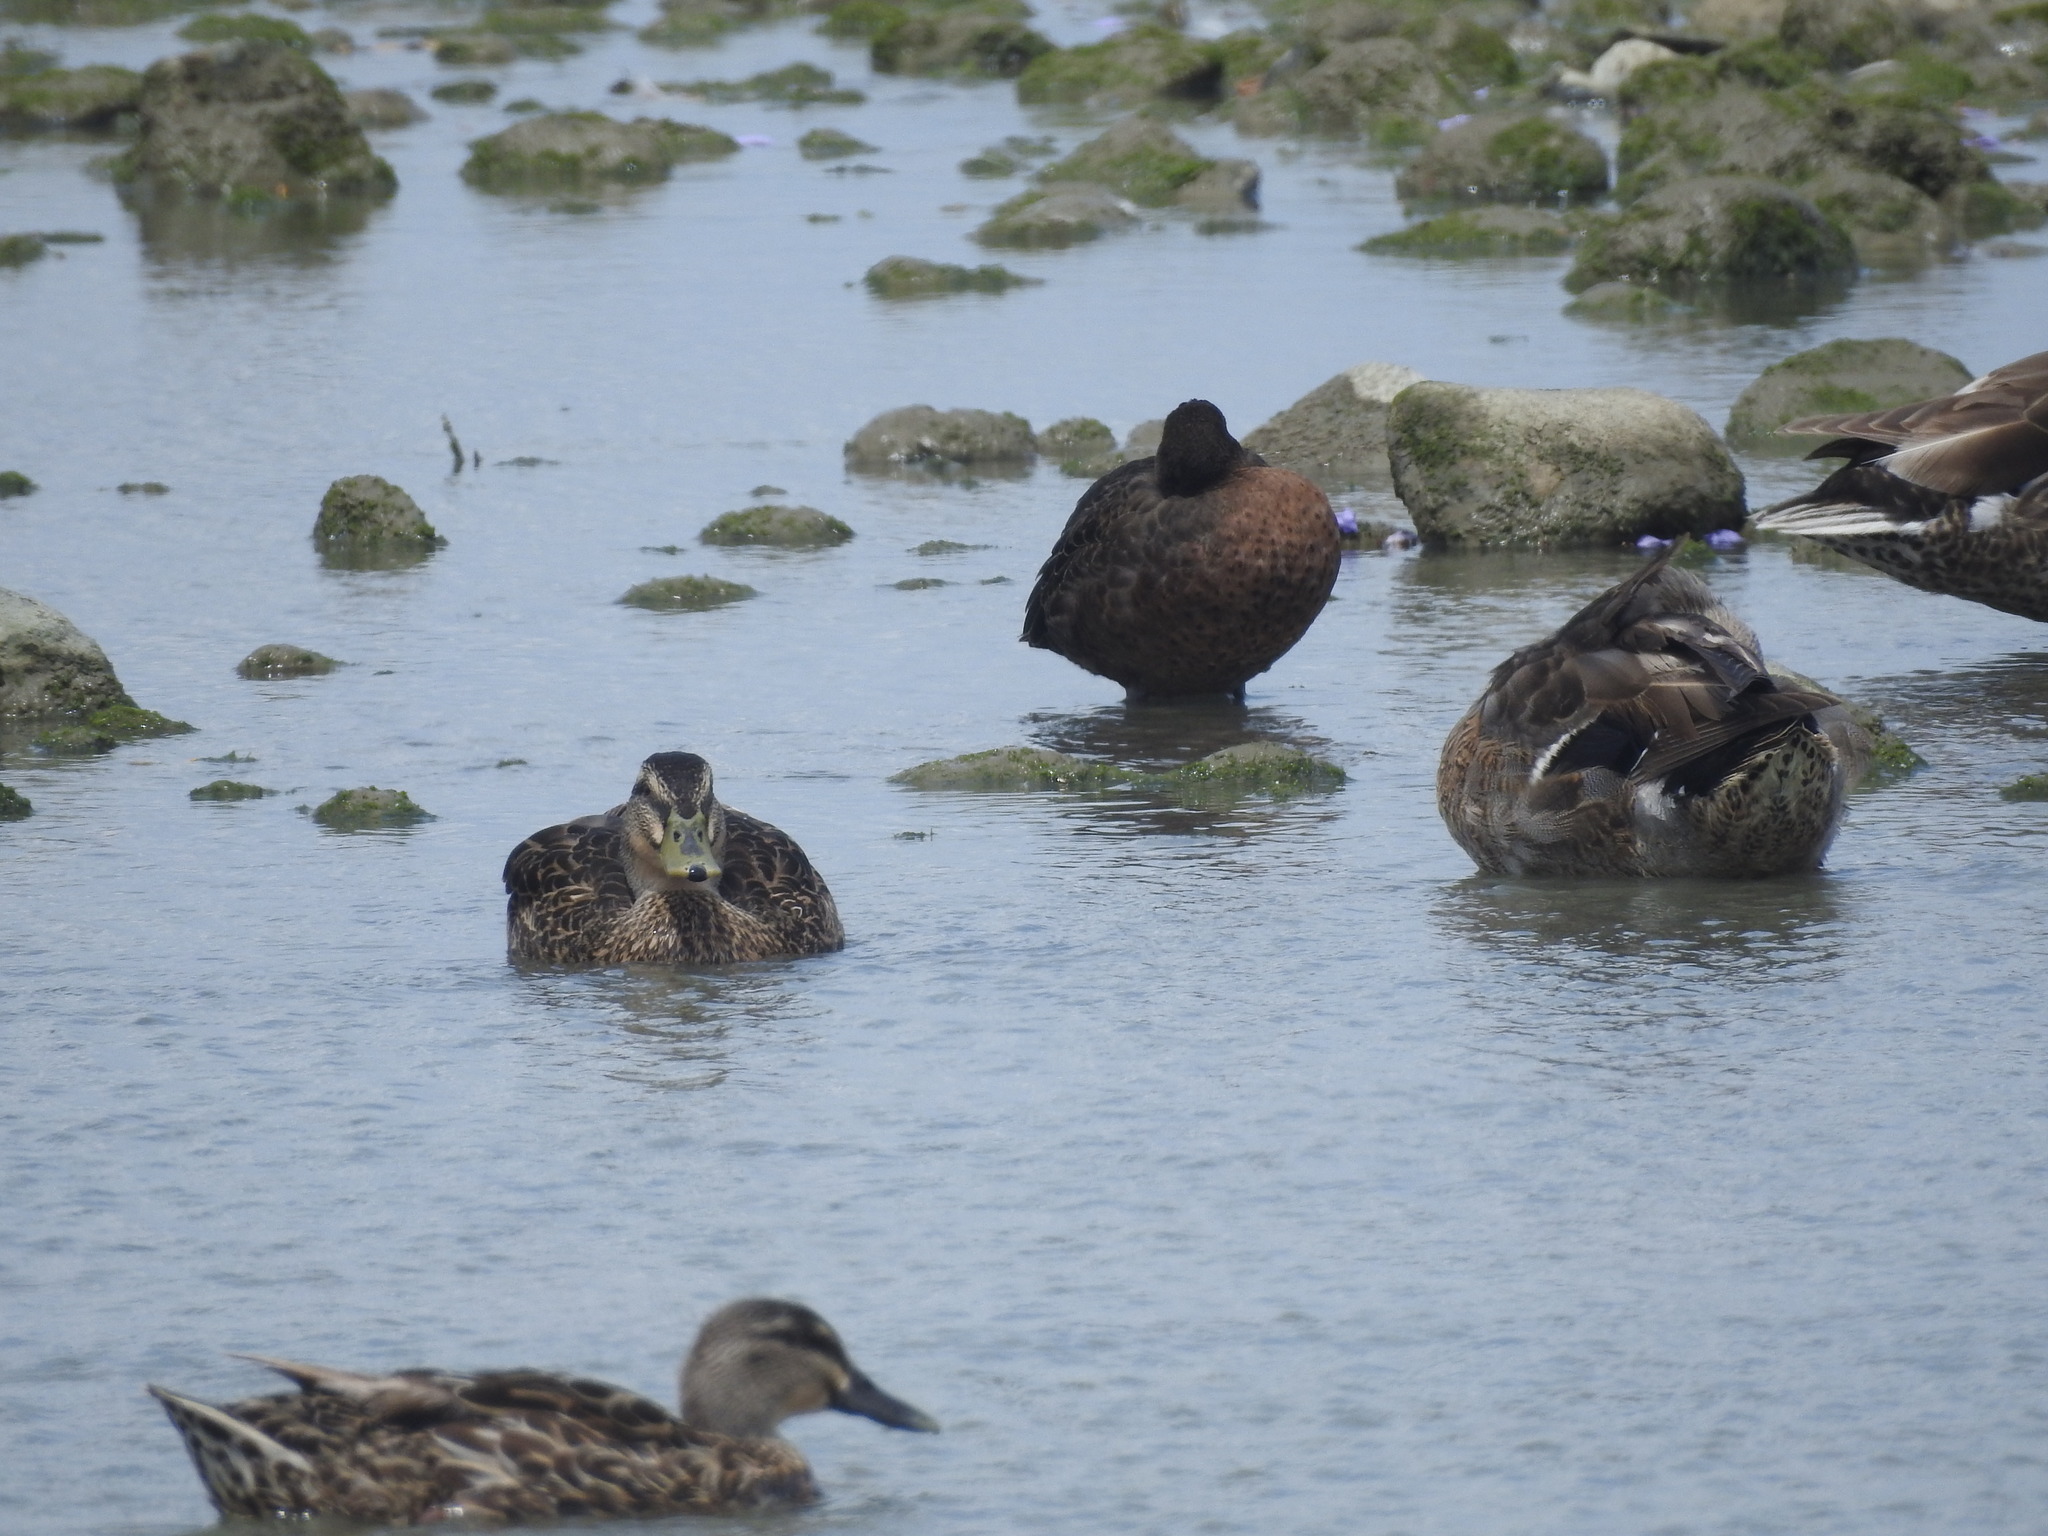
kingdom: Animalia
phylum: Chordata
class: Aves
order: Anseriformes
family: Anatidae
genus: Anas
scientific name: Anas chlorotis
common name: Brown teal
